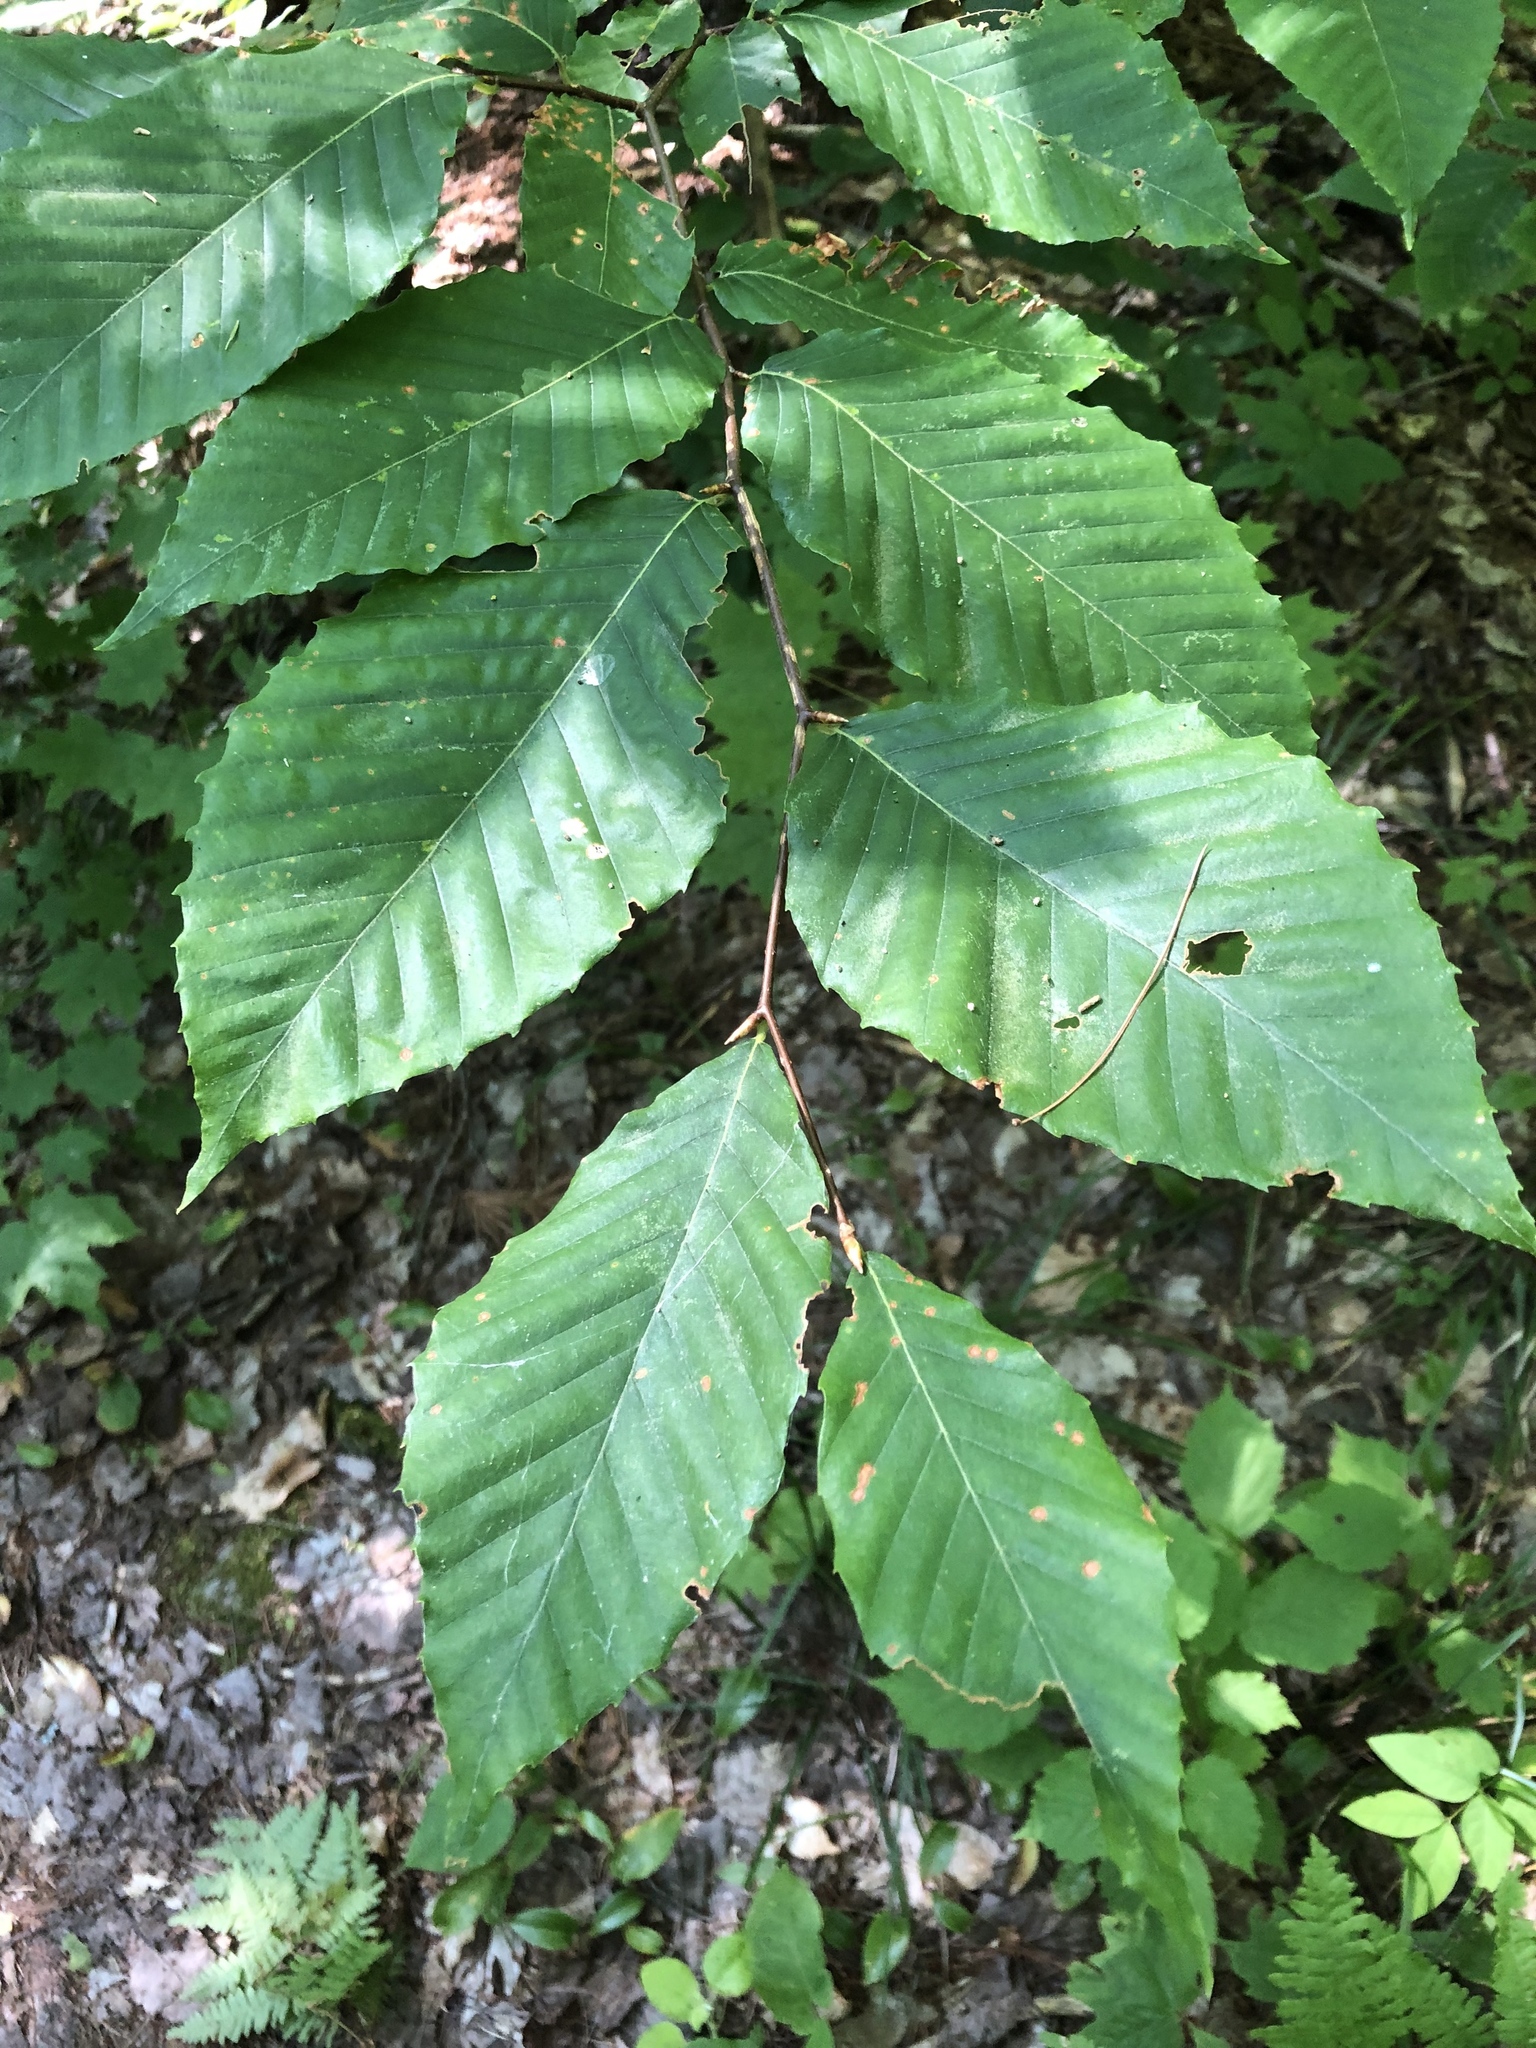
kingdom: Plantae
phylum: Tracheophyta
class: Magnoliopsida
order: Fagales
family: Fagaceae
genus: Fagus
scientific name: Fagus grandifolia
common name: American beech
